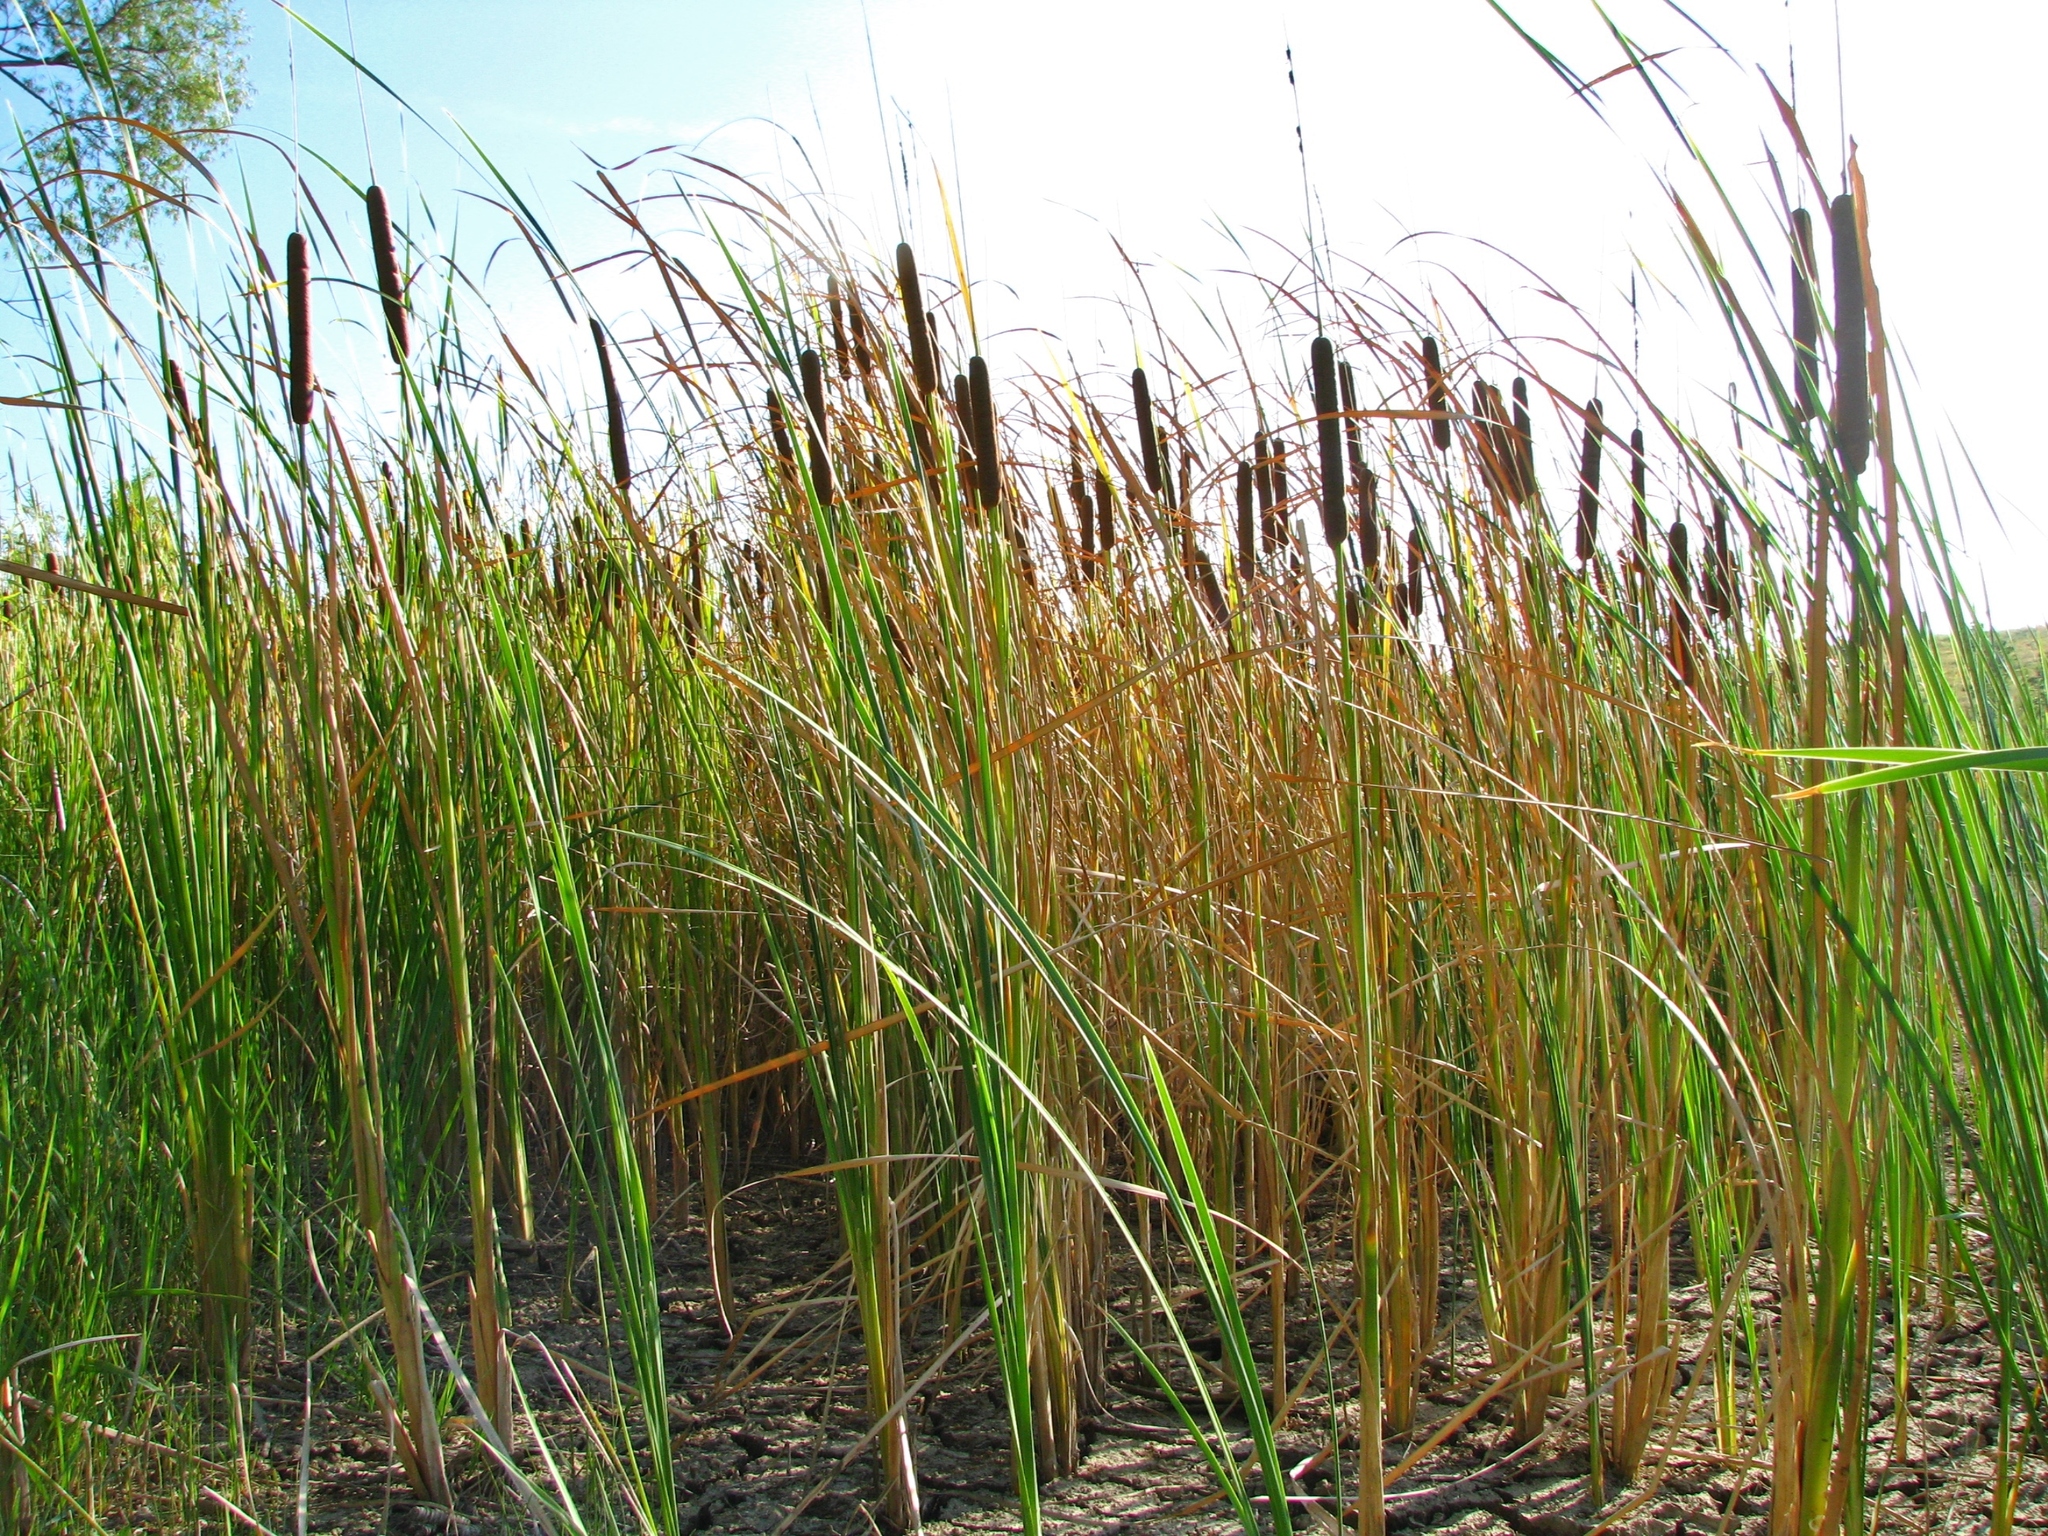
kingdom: Plantae
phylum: Tracheophyta
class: Liliopsida
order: Poales
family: Typhaceae
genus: Typha
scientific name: Typha domingensis
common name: Southern cattail
